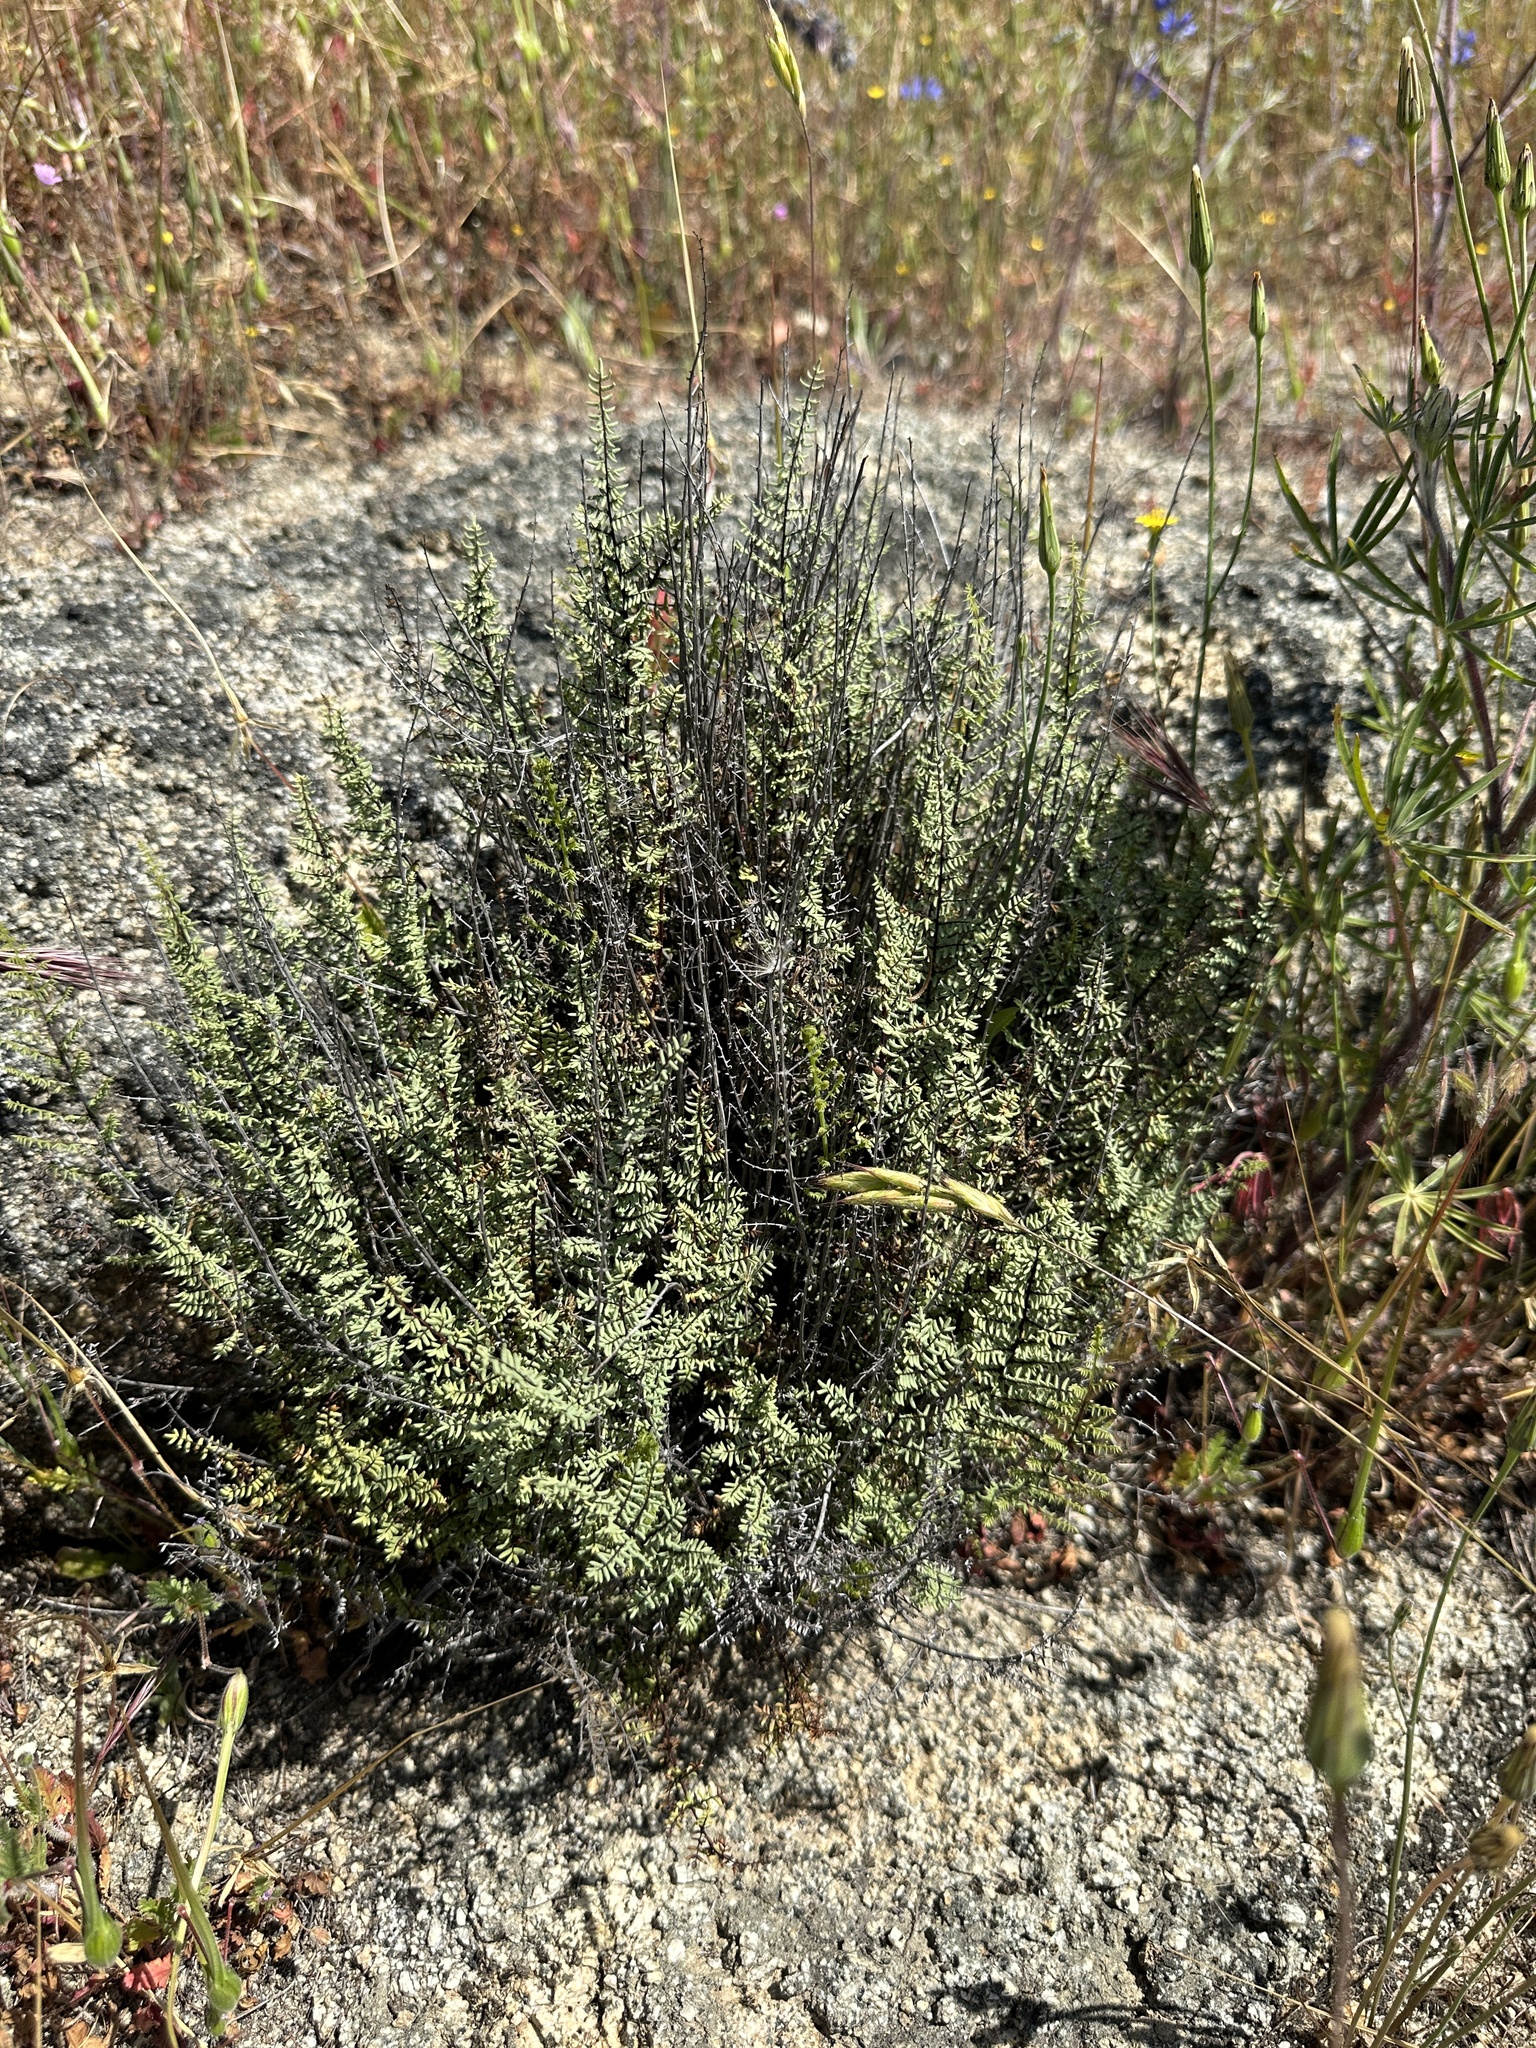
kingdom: Plantae
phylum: Tracheophyta
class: Polypodiopsida
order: Polypodiales
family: Pteridaceae
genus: Pellaea
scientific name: Pellaea mucronata
